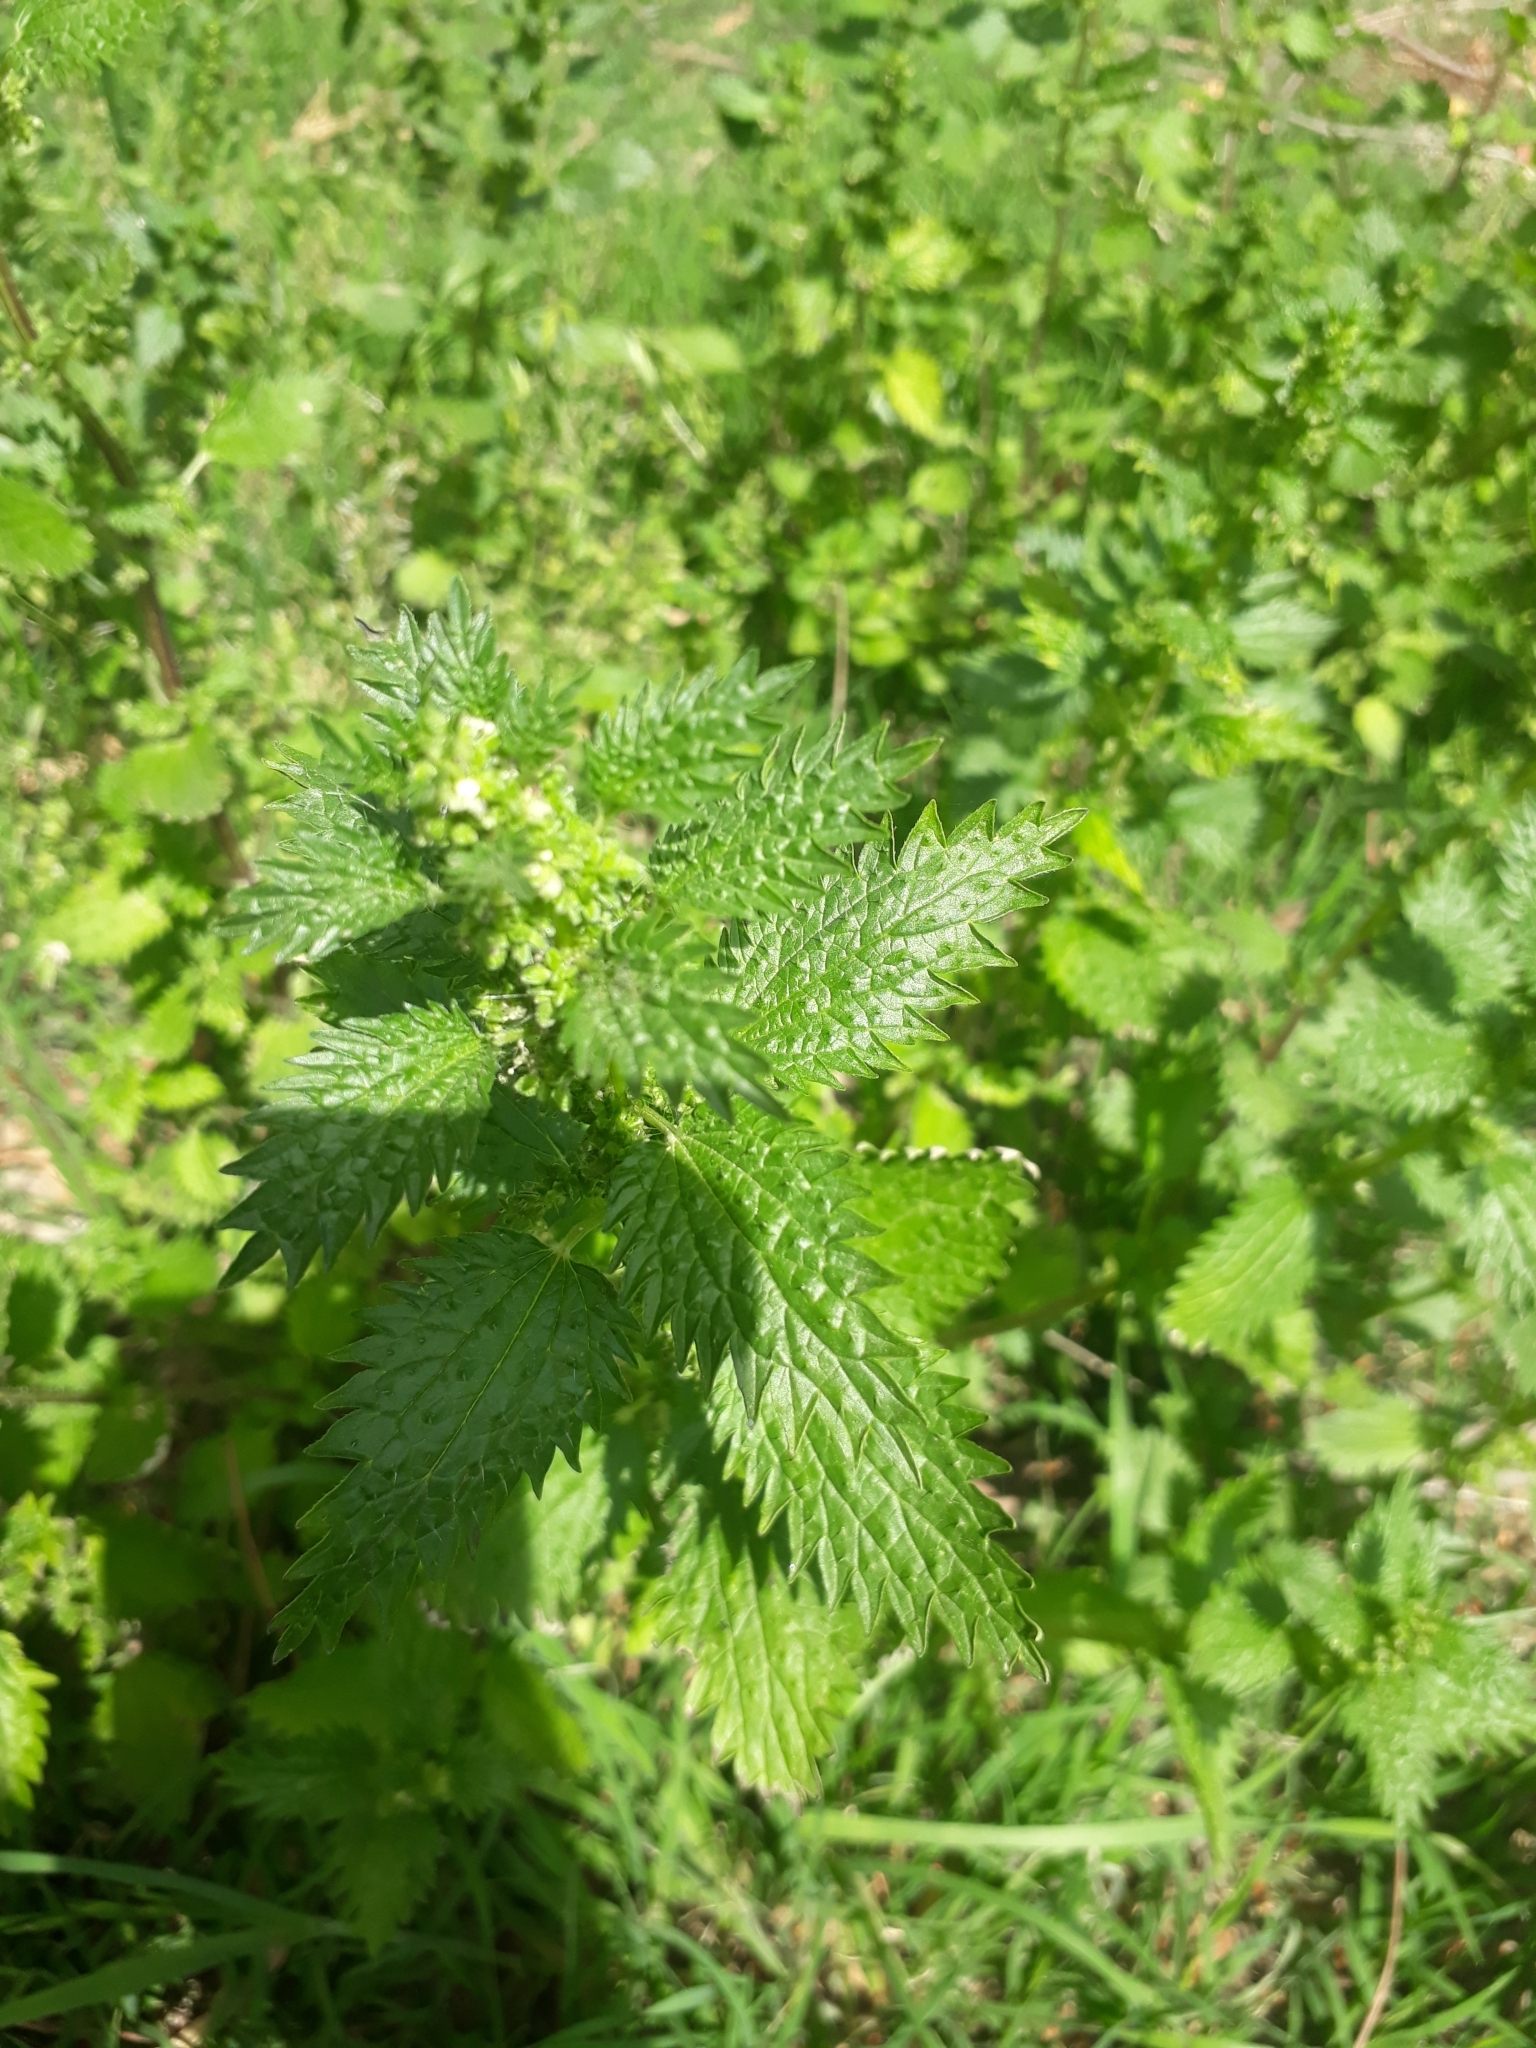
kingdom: Plantae
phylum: Tracheophyta
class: Magnoliopsida
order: Rosales
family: Urticaceae
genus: Urtica
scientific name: Urtica urens
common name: Dwarf nettle
